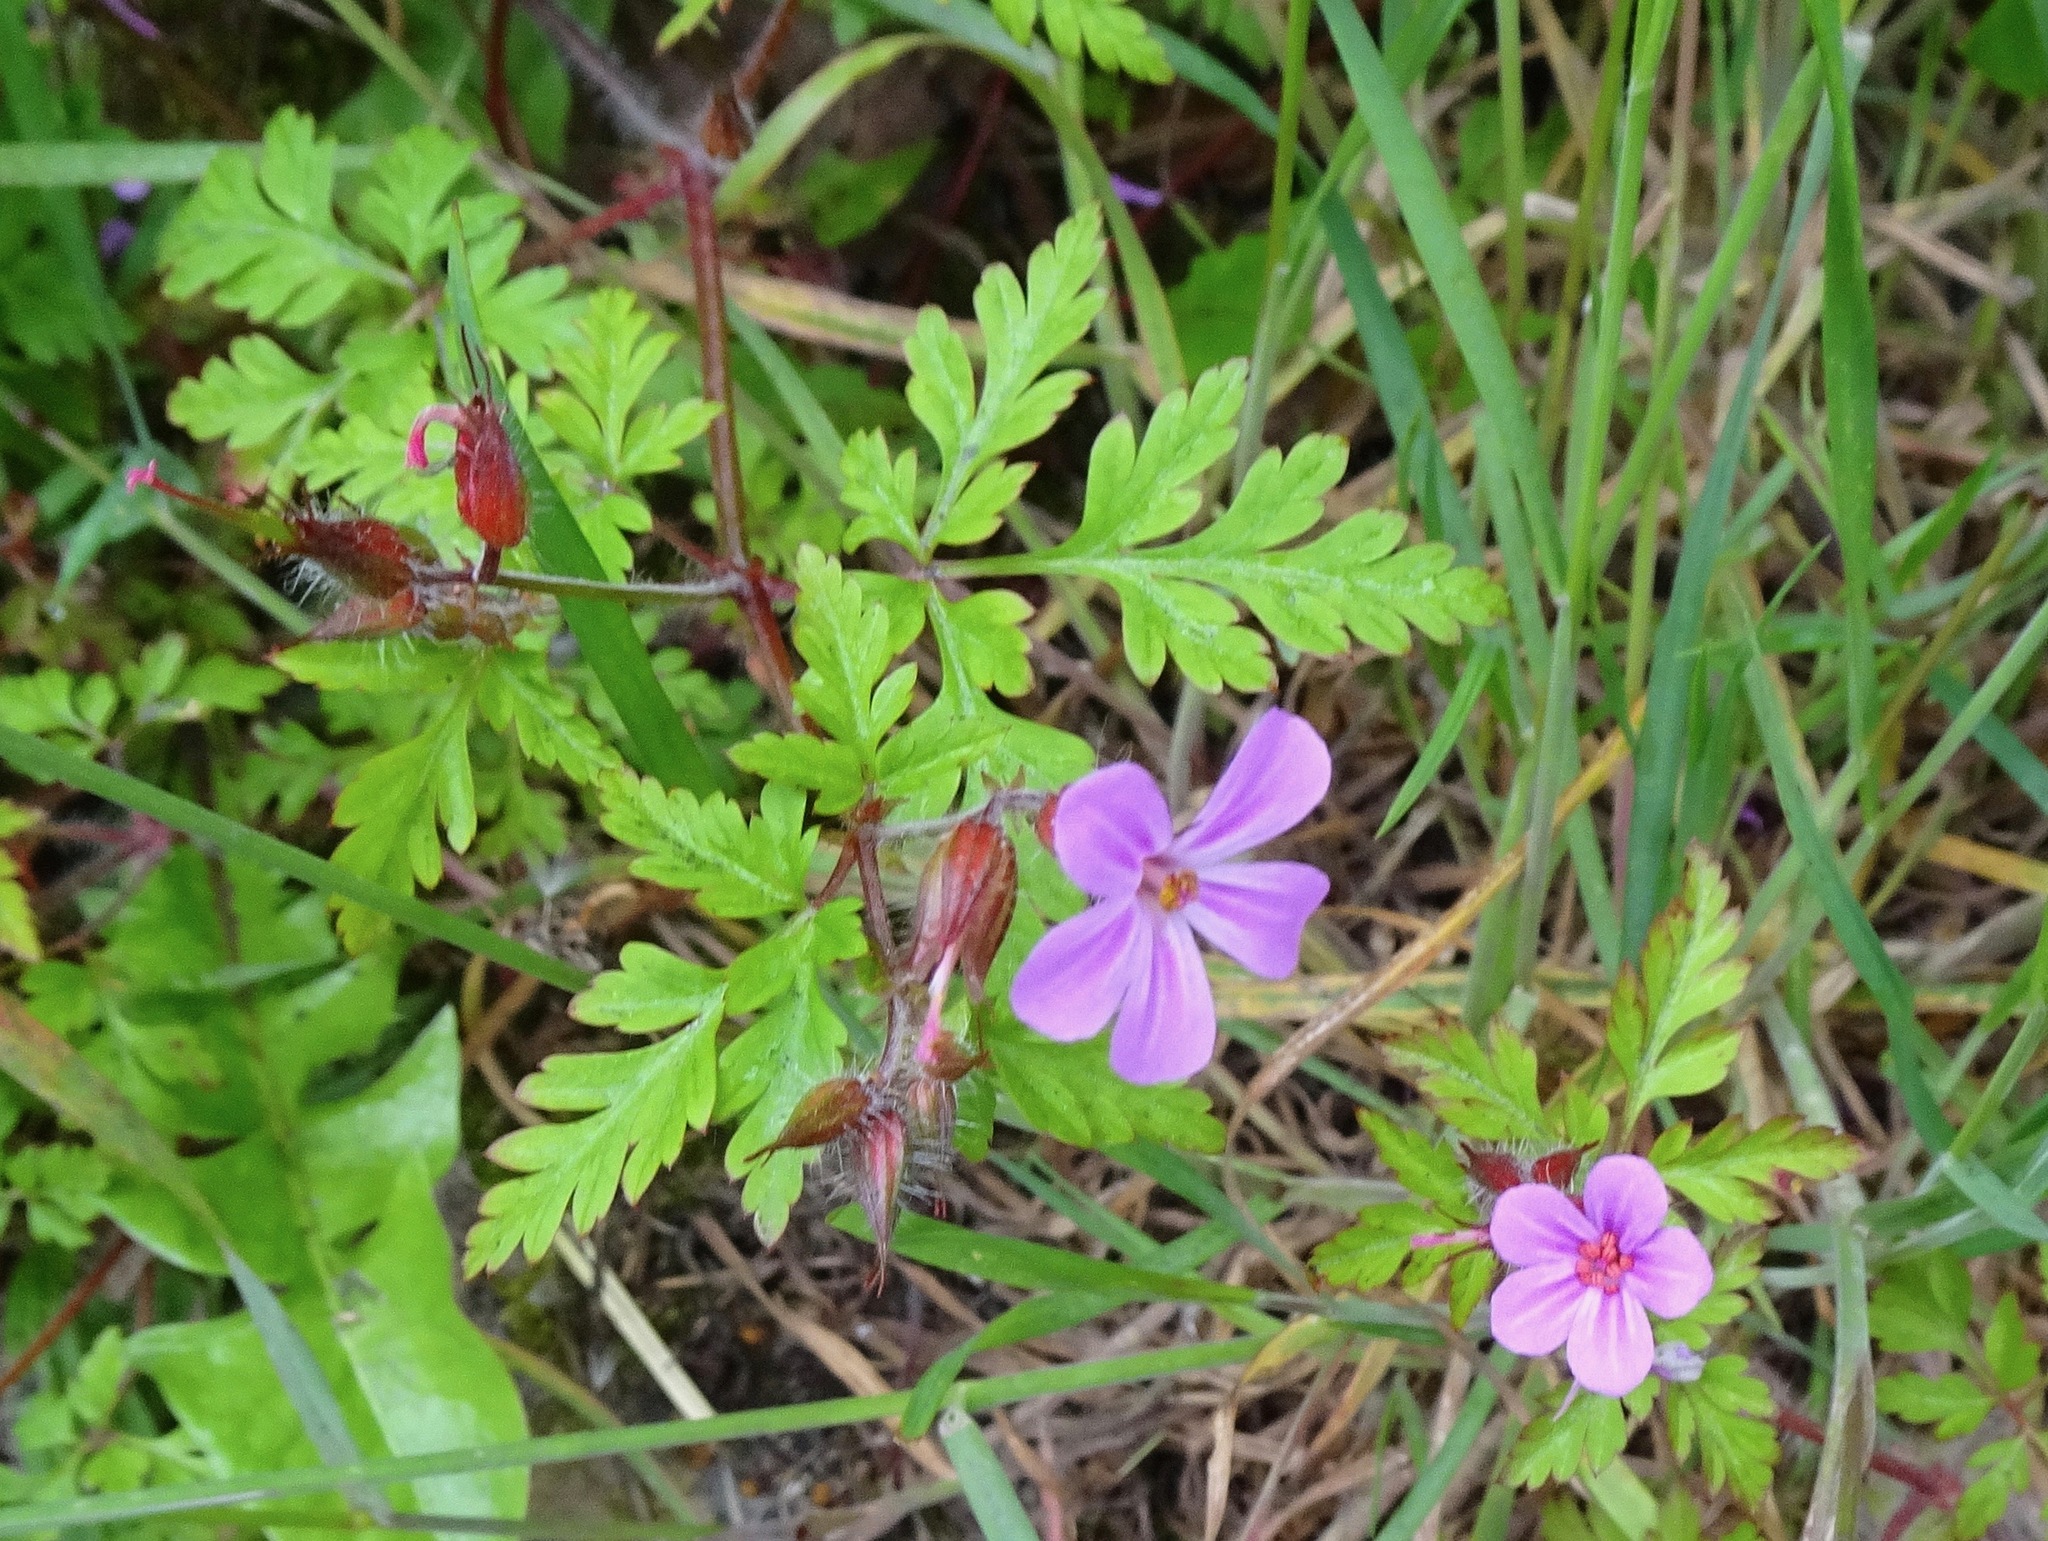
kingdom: Plantae
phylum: Tracheophyta
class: Magnoliopsida
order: Geraniales
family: Geraniaceae
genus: Geranium
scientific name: Geranium robertianum
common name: Herb-robert
